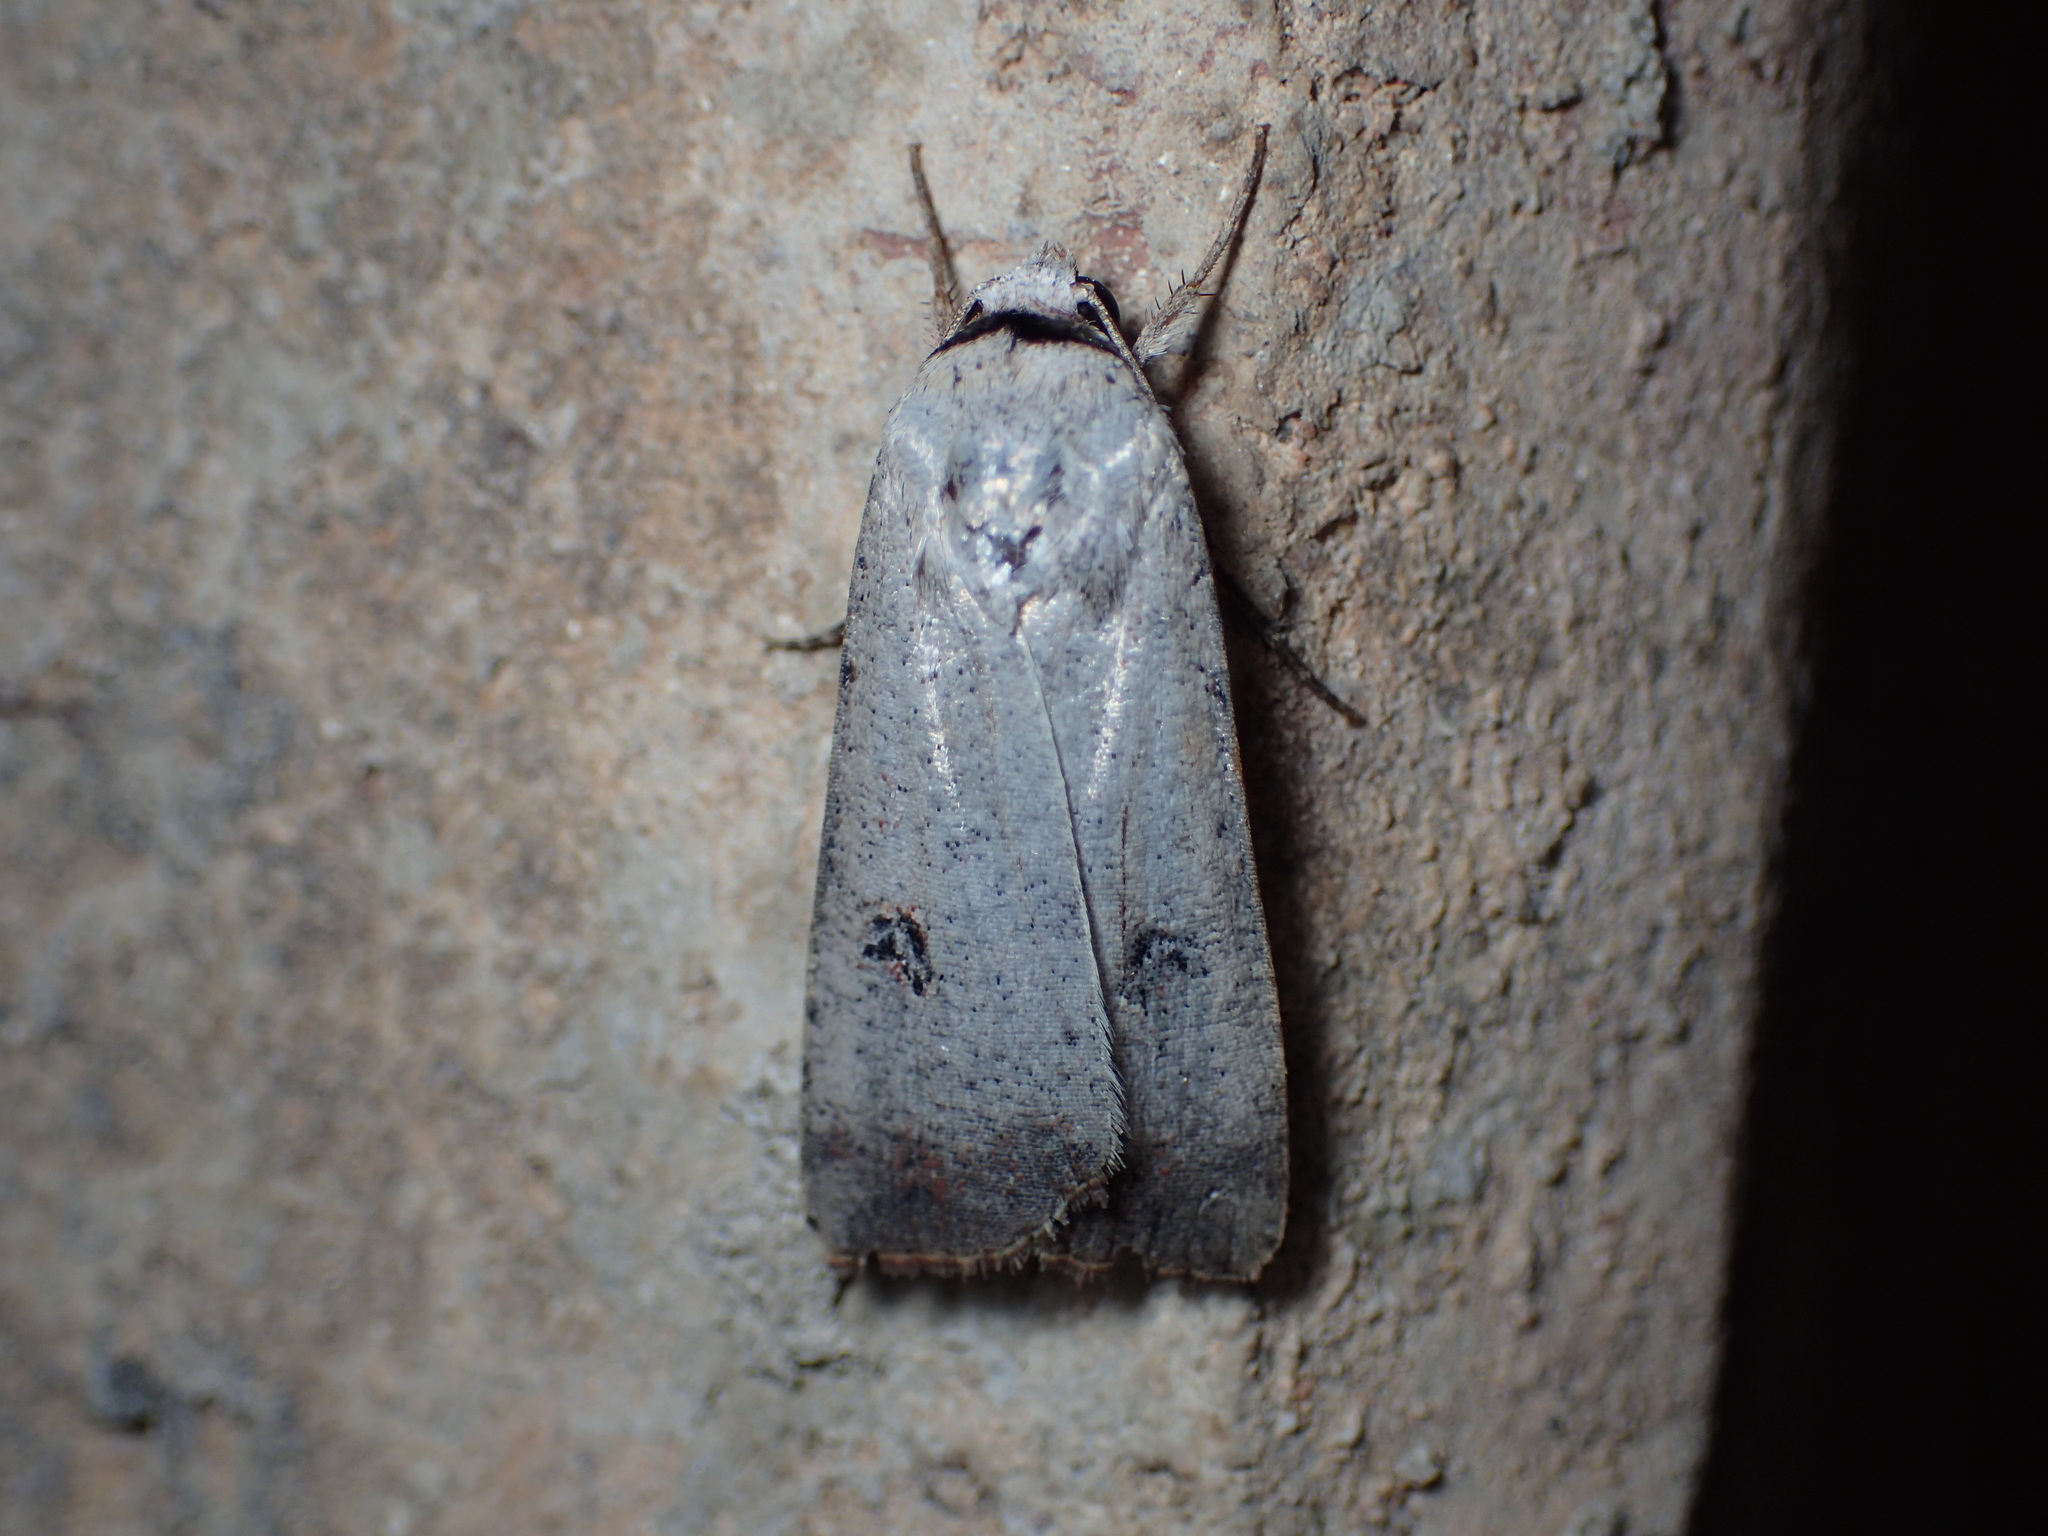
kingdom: Animalia
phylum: Arthropoda
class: Insecta
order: Lepidoptera
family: Noctuidae
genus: Anicla
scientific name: Anicla infecta
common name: Green cutworm
